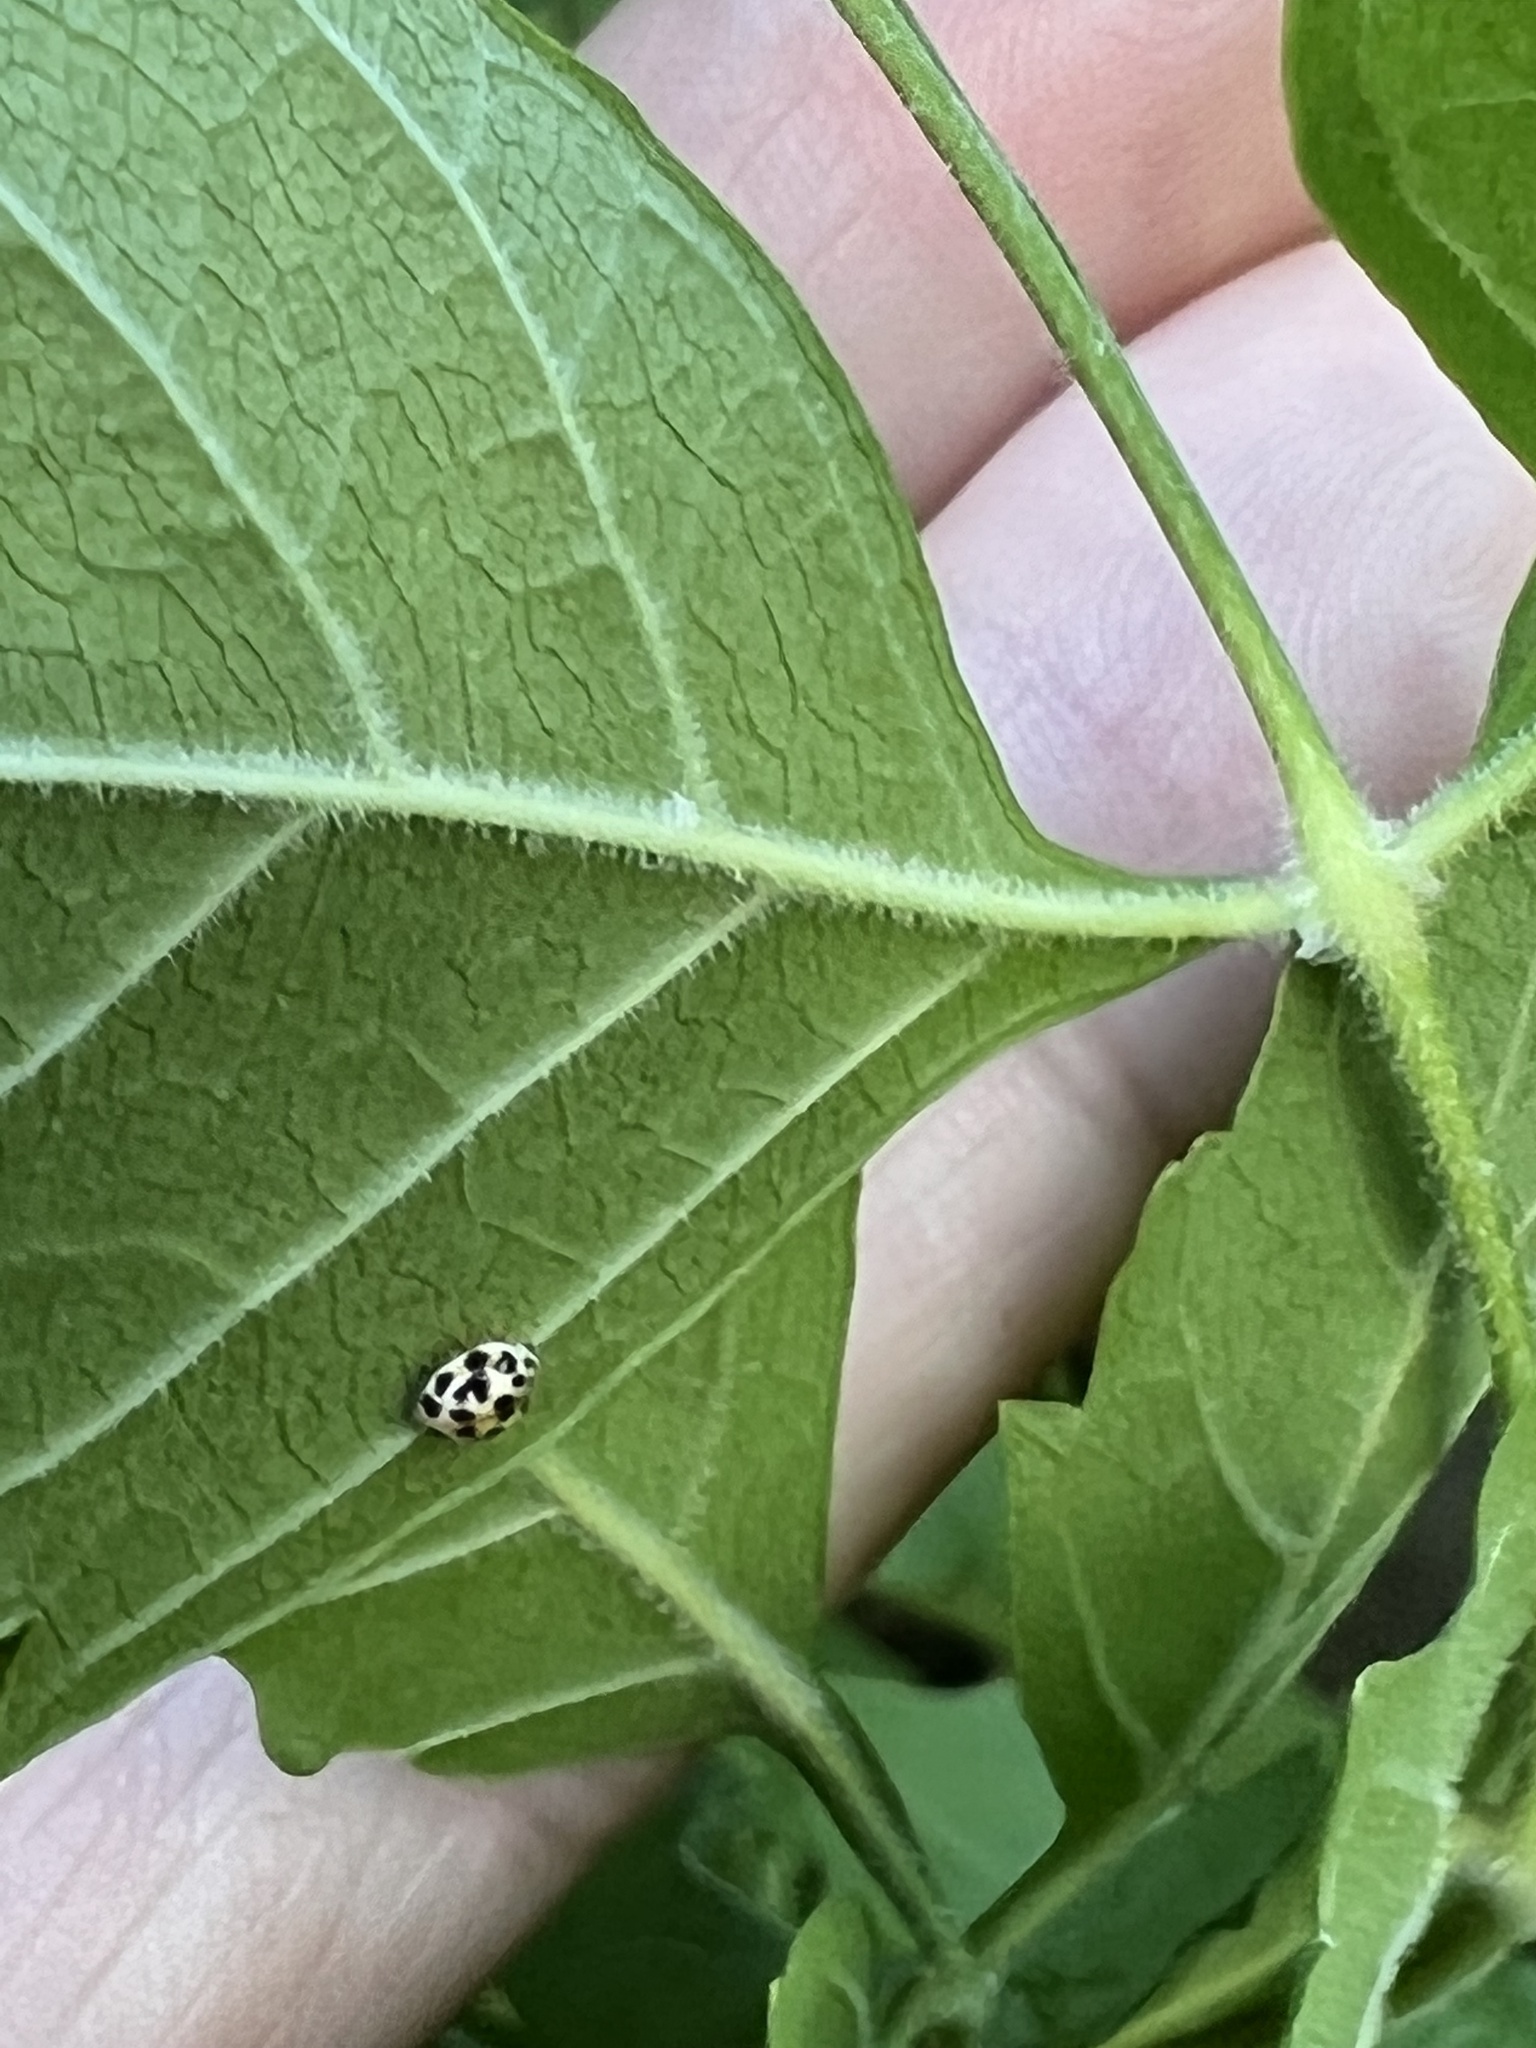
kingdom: Animalia
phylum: Arthropoda
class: Insecta
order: Coleoptera
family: Coccinellidae
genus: Psyllobora
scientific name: Psyllobora vigintimaculata
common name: Ladybird beetle
